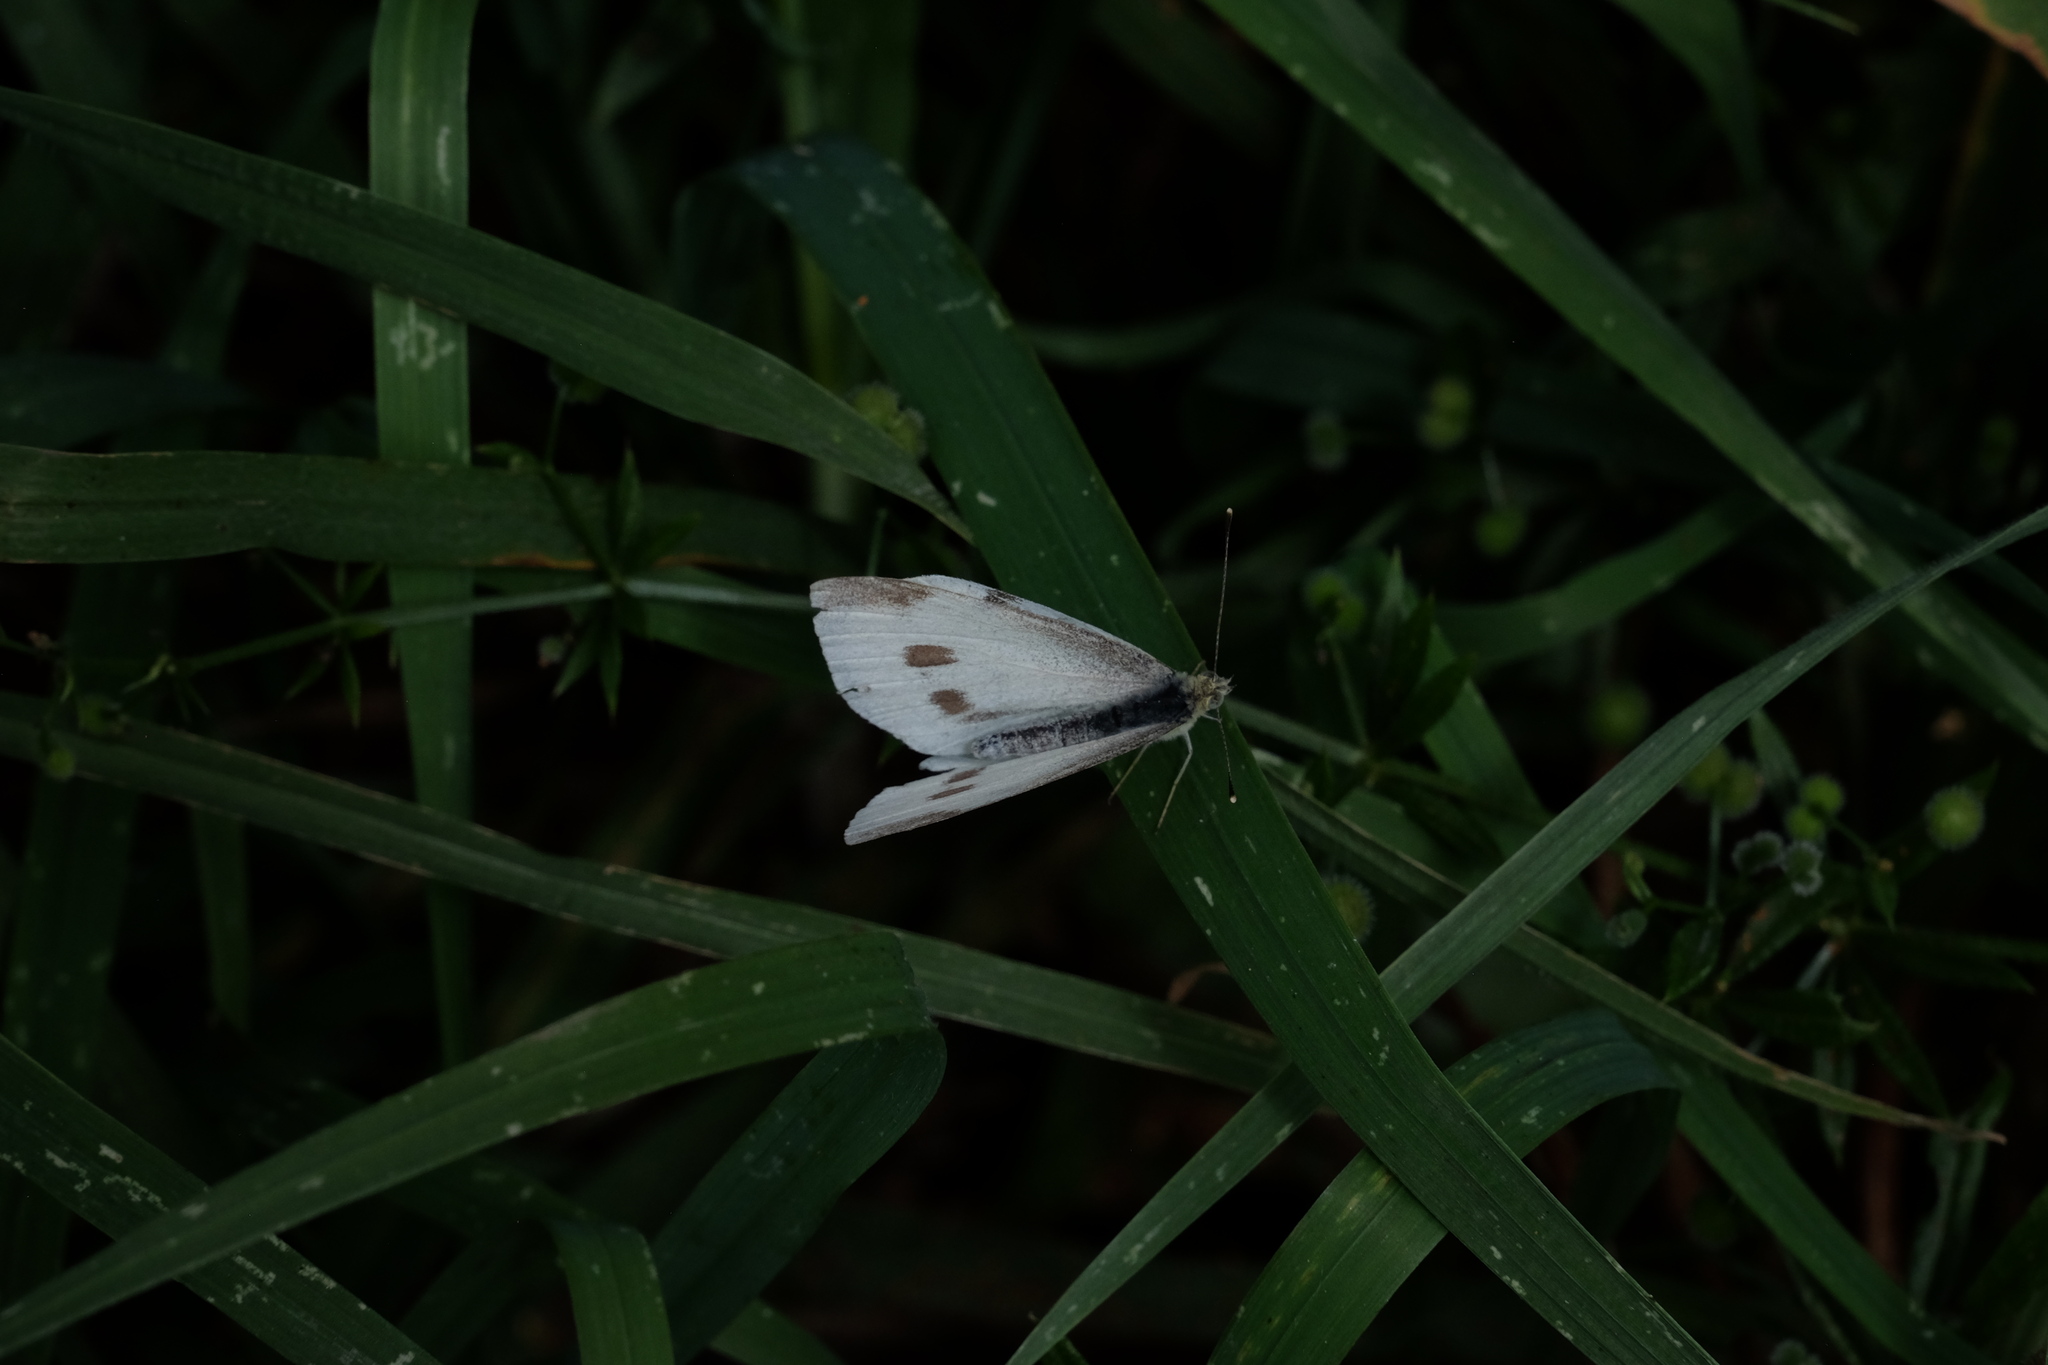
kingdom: Animalia
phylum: Arthropoda
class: Insecta
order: Lepidoptera
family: Pieridae
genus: Pieris
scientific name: Pieris rapae
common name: Small white
